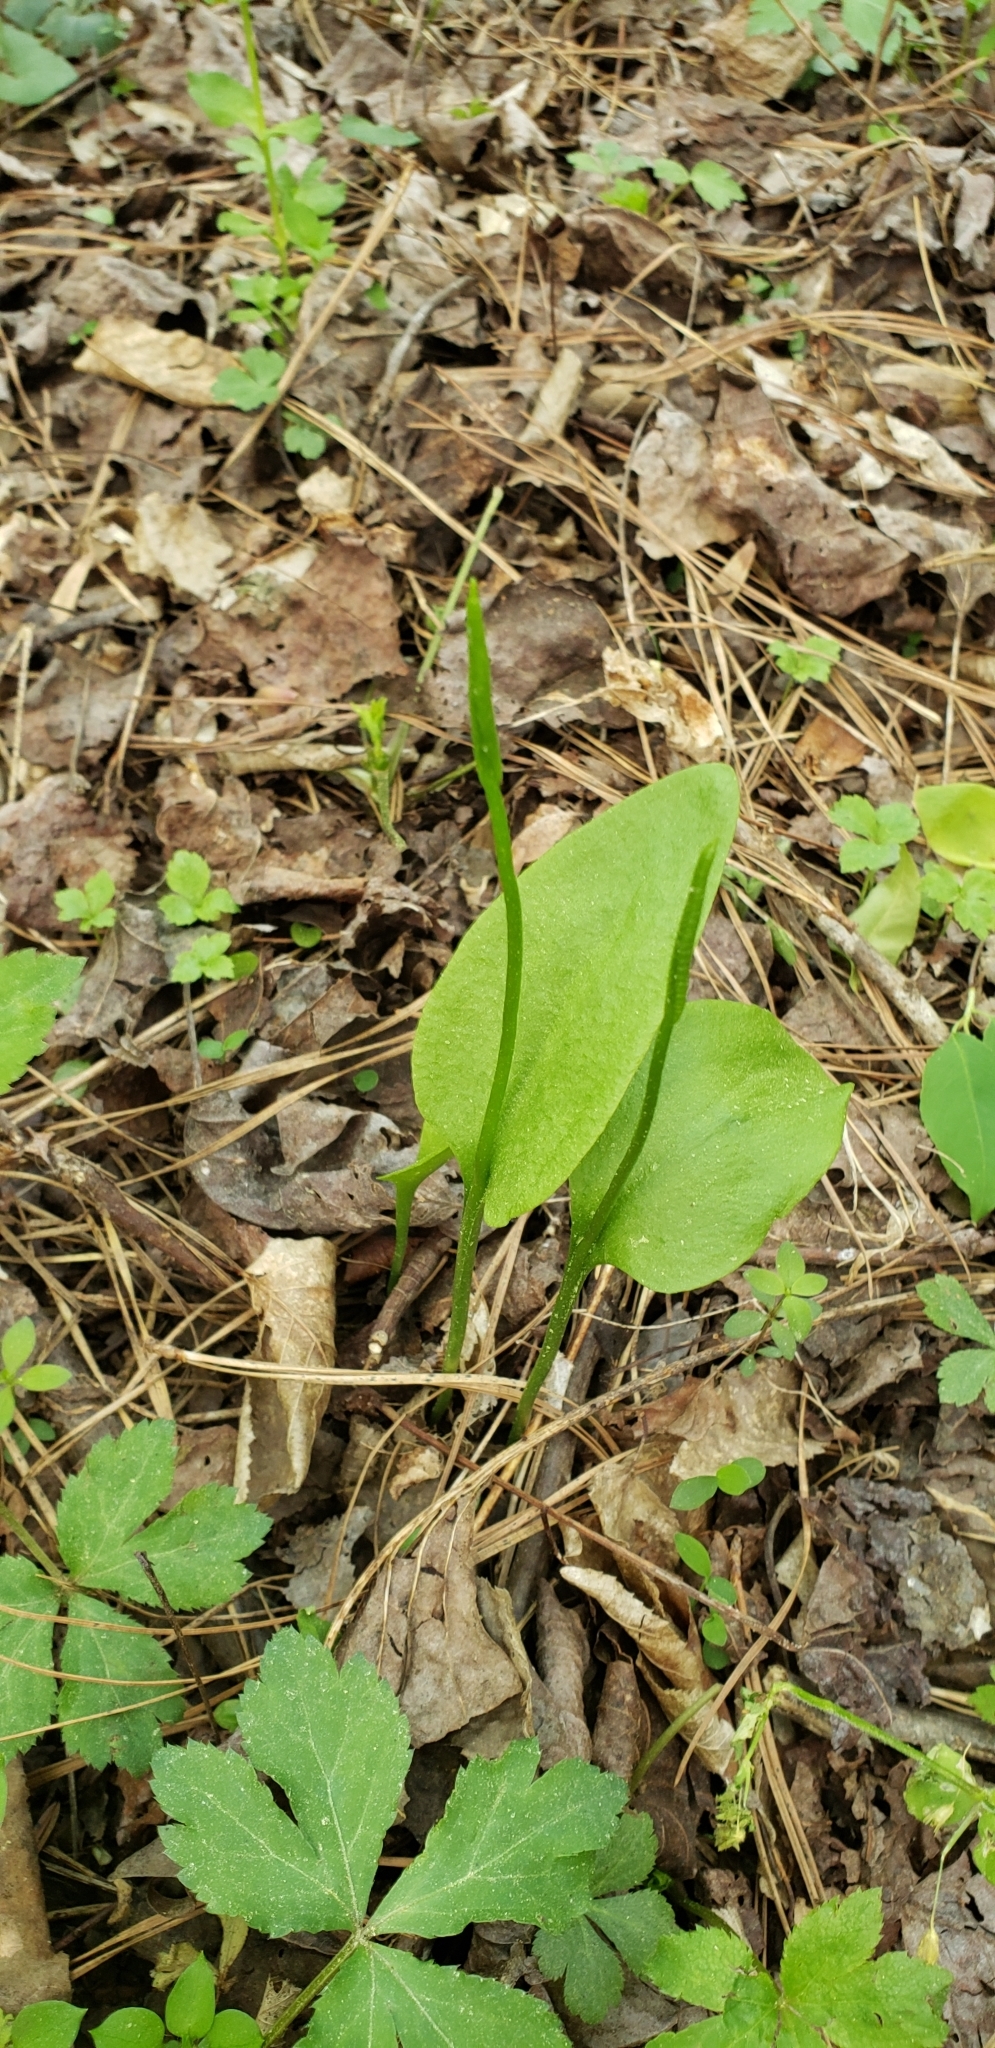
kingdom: Plantae
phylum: Tracheophyta
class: Polypodiopsida
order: Ophioglossales
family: Ophioglossaceae
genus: Ophioglossum
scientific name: Ophioglossum vulgatum
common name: Adder's-tongue
